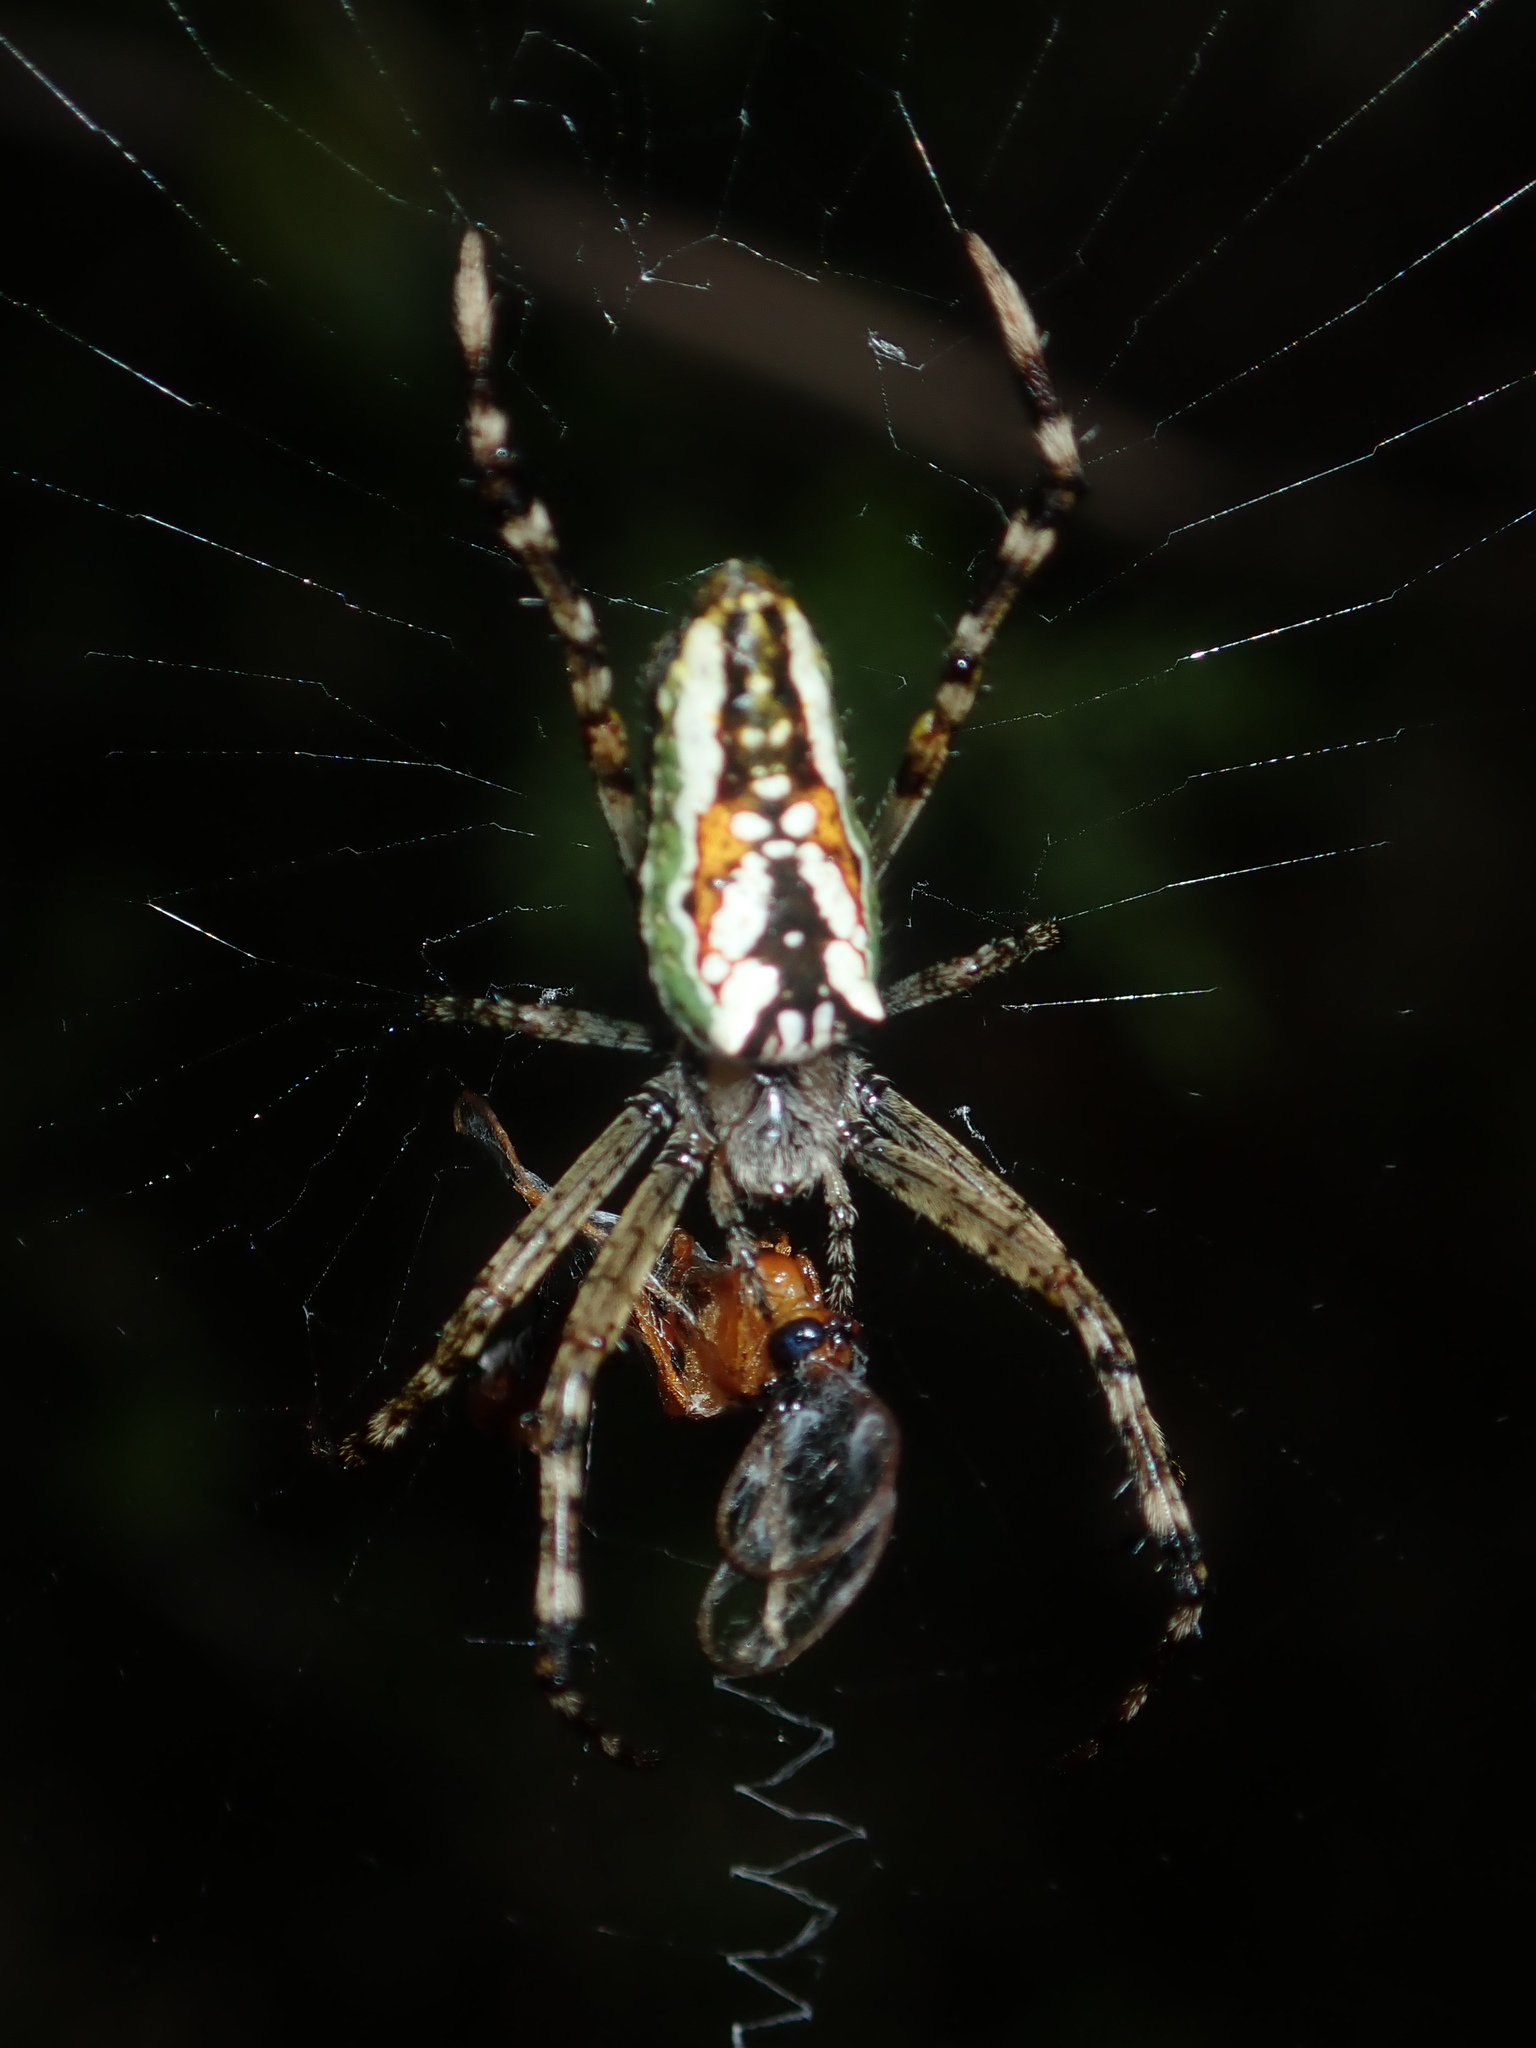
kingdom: Animalia
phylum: Arthropoda
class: Arachnida
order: Araneae
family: Araneidae
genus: Plebs
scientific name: Plebs bradleyi
